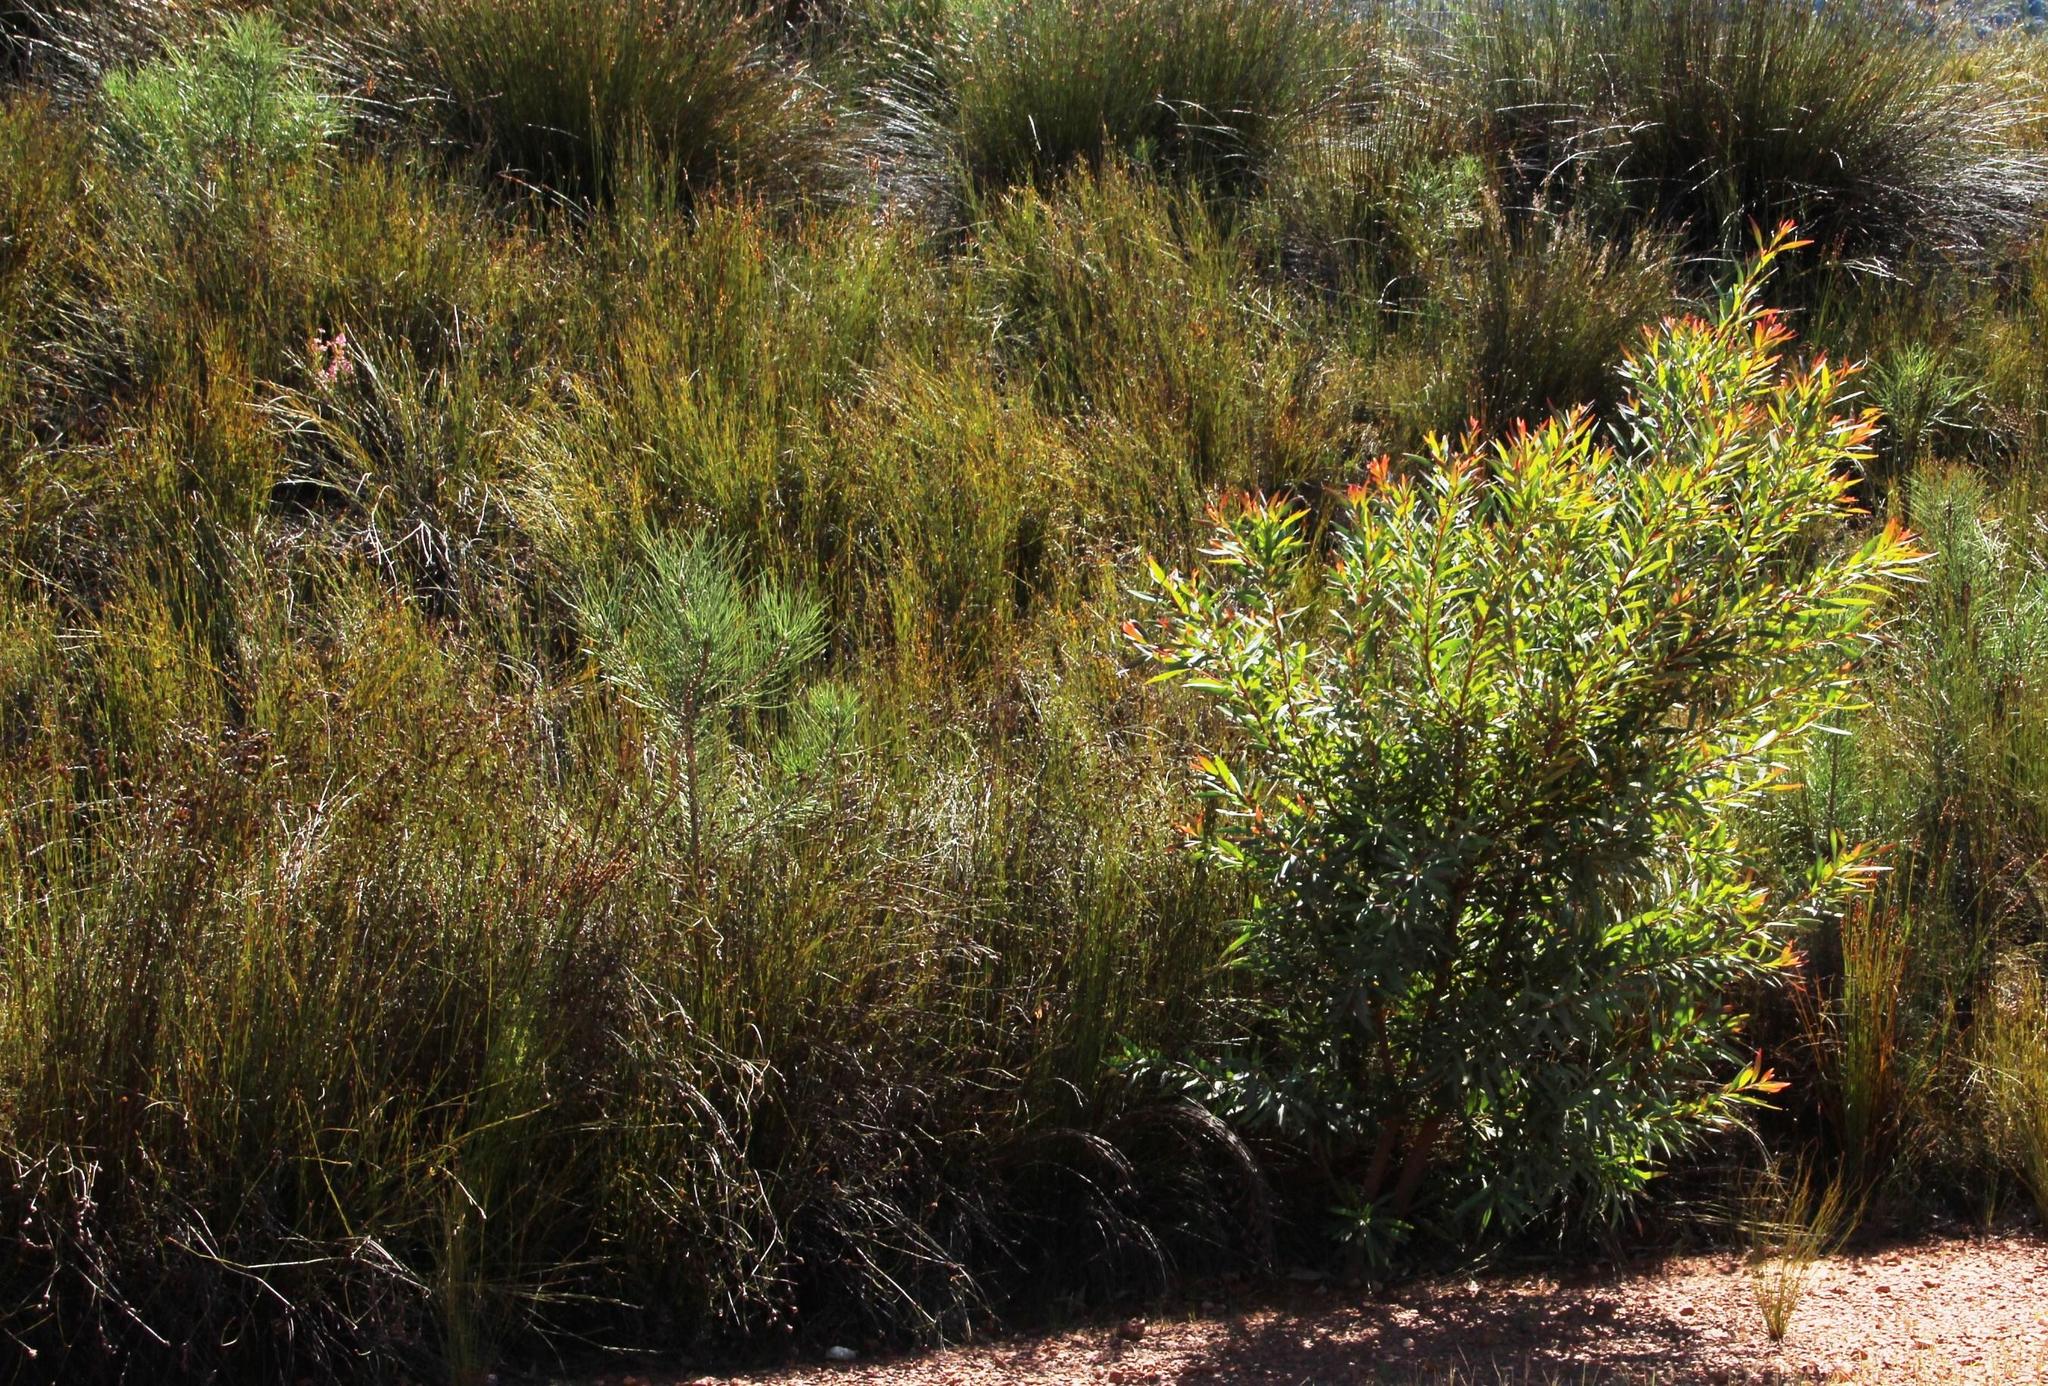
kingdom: Plantae
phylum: Tracheophyta
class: Pinopsida
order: Pinales
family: Pinaceae
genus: Pinus
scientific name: Pinus pinaster
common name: Maritime pine
